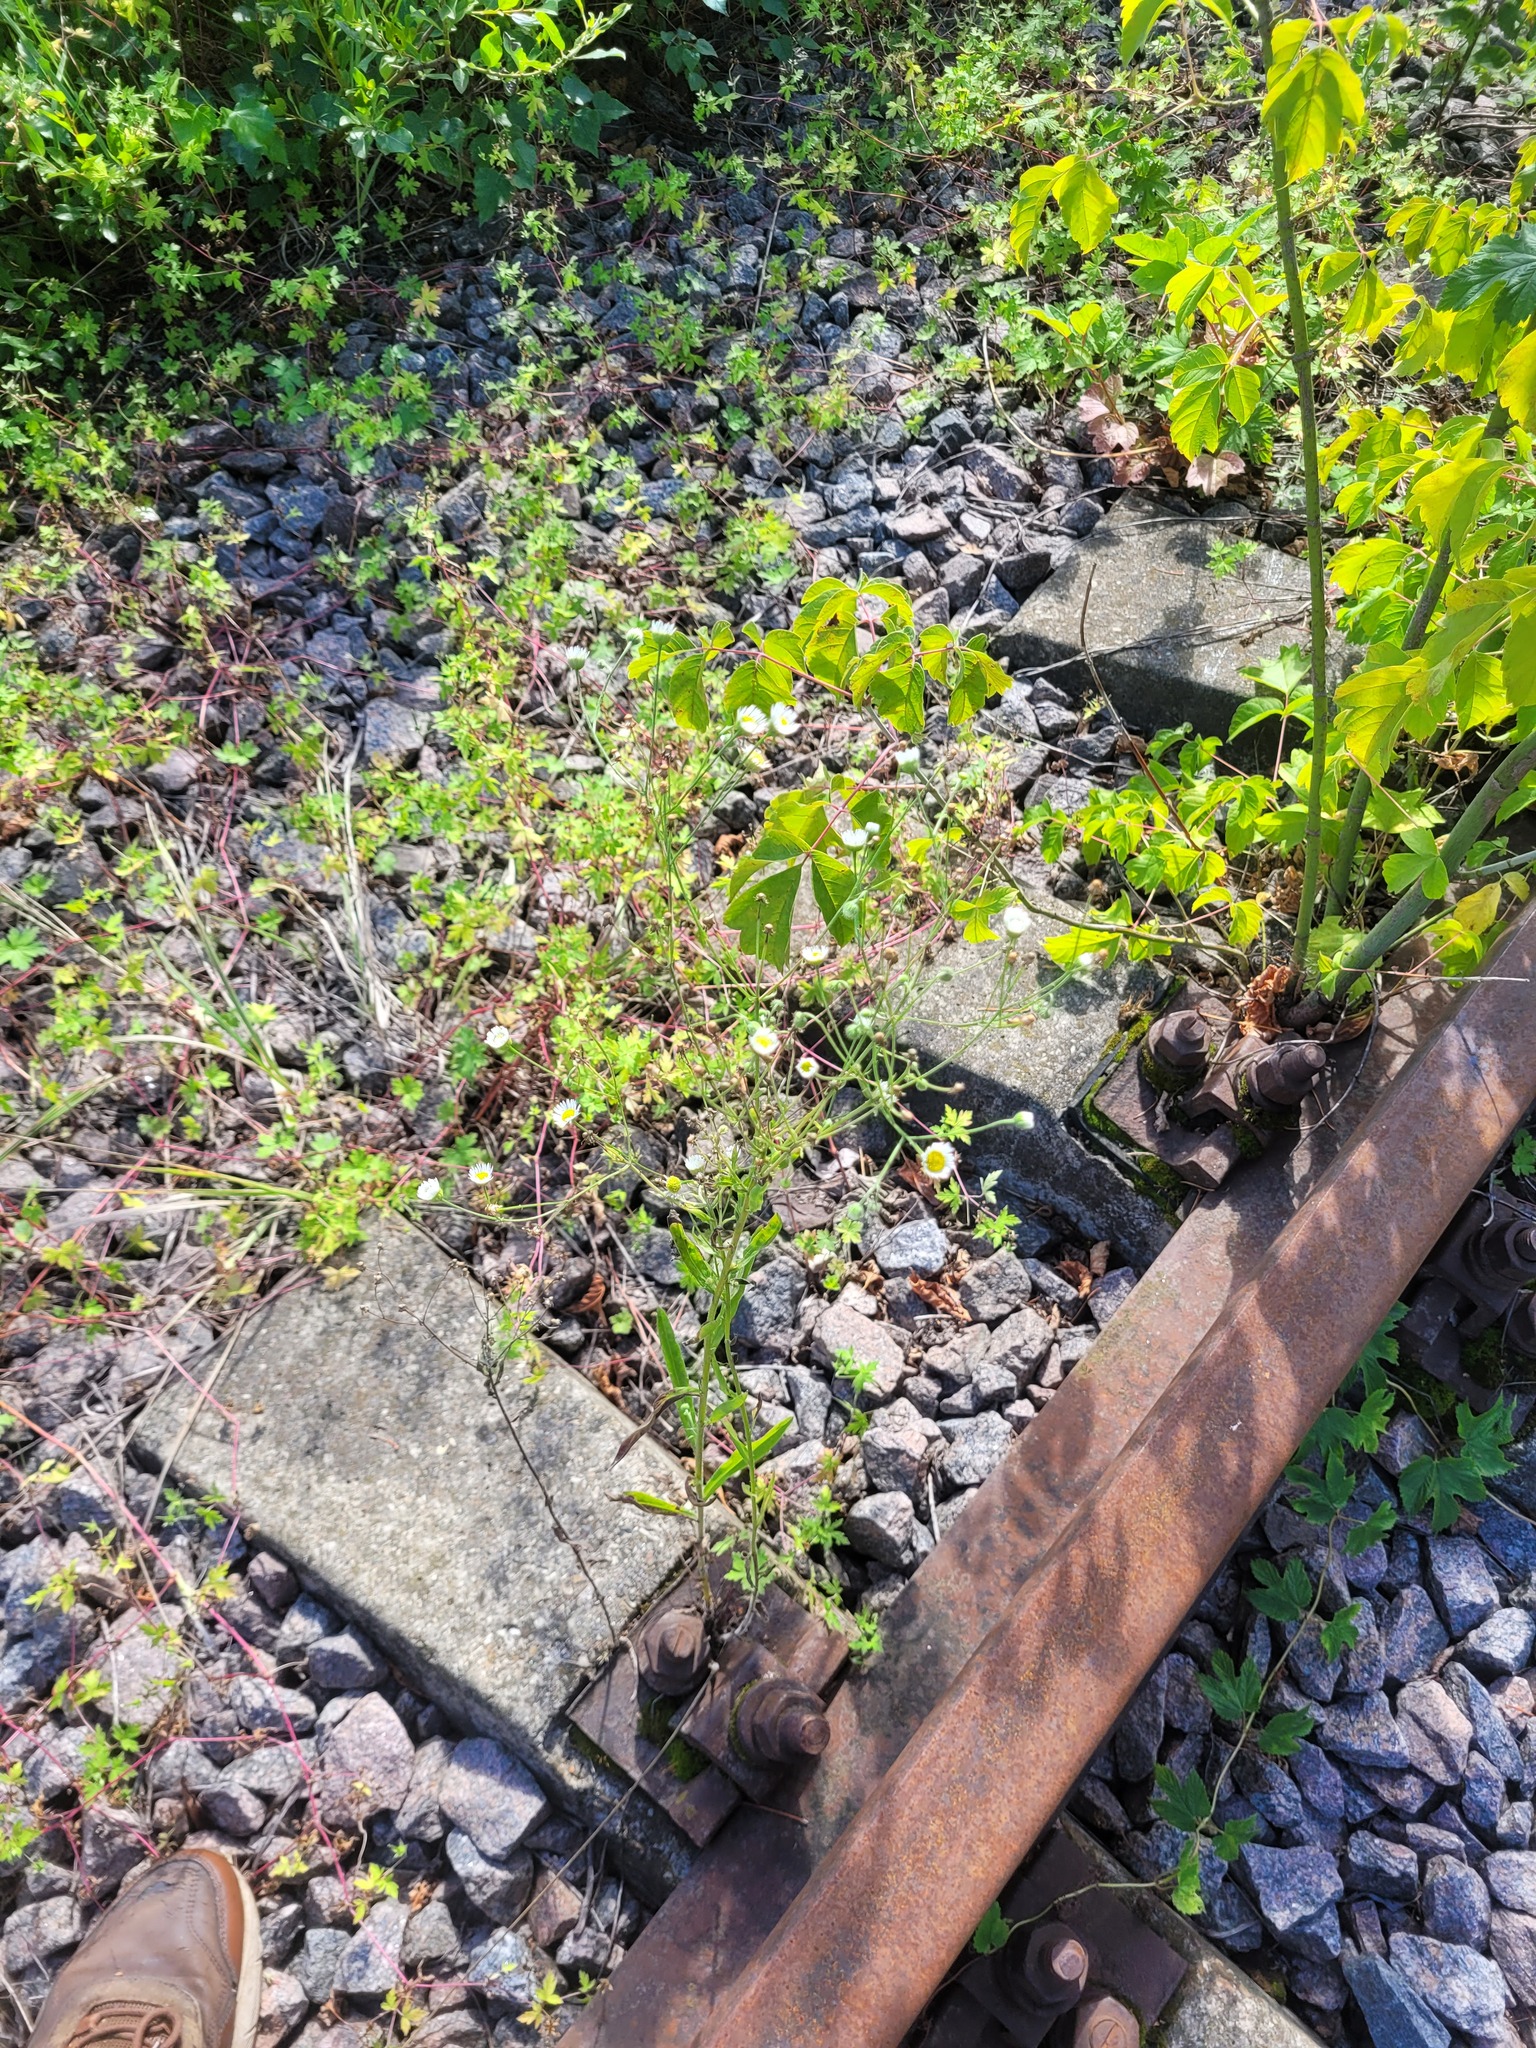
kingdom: Plantae
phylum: Tracheophyta
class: Magnoliopsida
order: Asterales
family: Asteraceae
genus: Erigeron
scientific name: Erigeron annuus
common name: Tall fleabane
